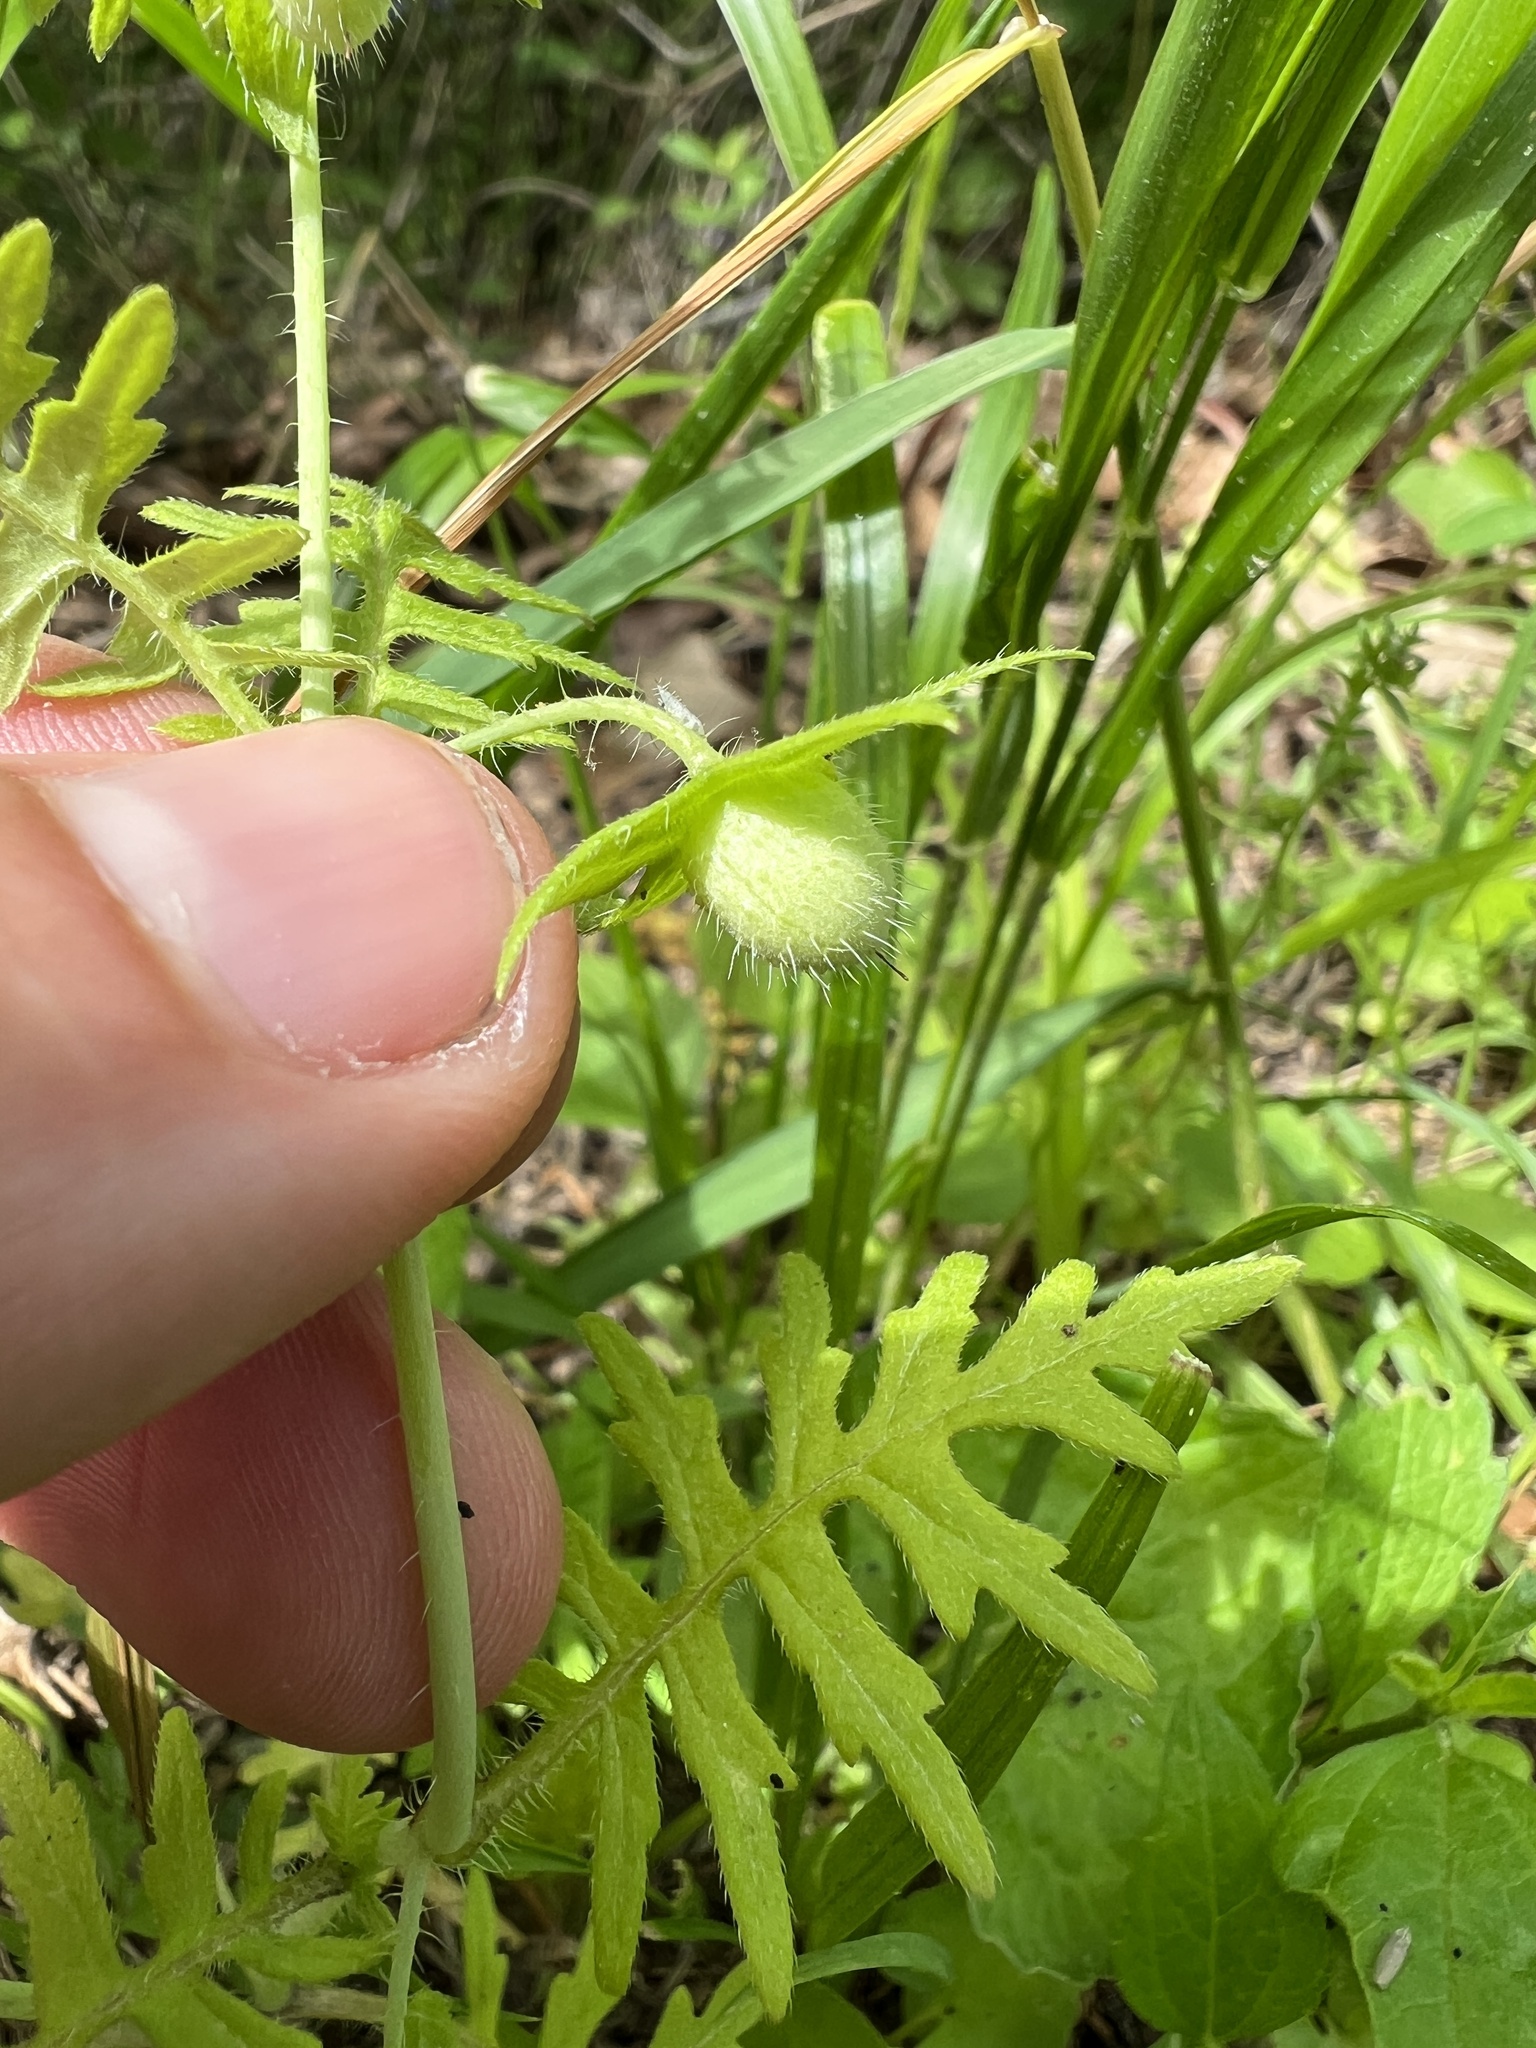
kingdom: Plantae
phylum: Tracheophyta
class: Magnoliopsida
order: Boraginales
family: Hydrophyllaceae
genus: Ellisia
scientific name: Ellisia nyctelea
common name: Aunt lucy
